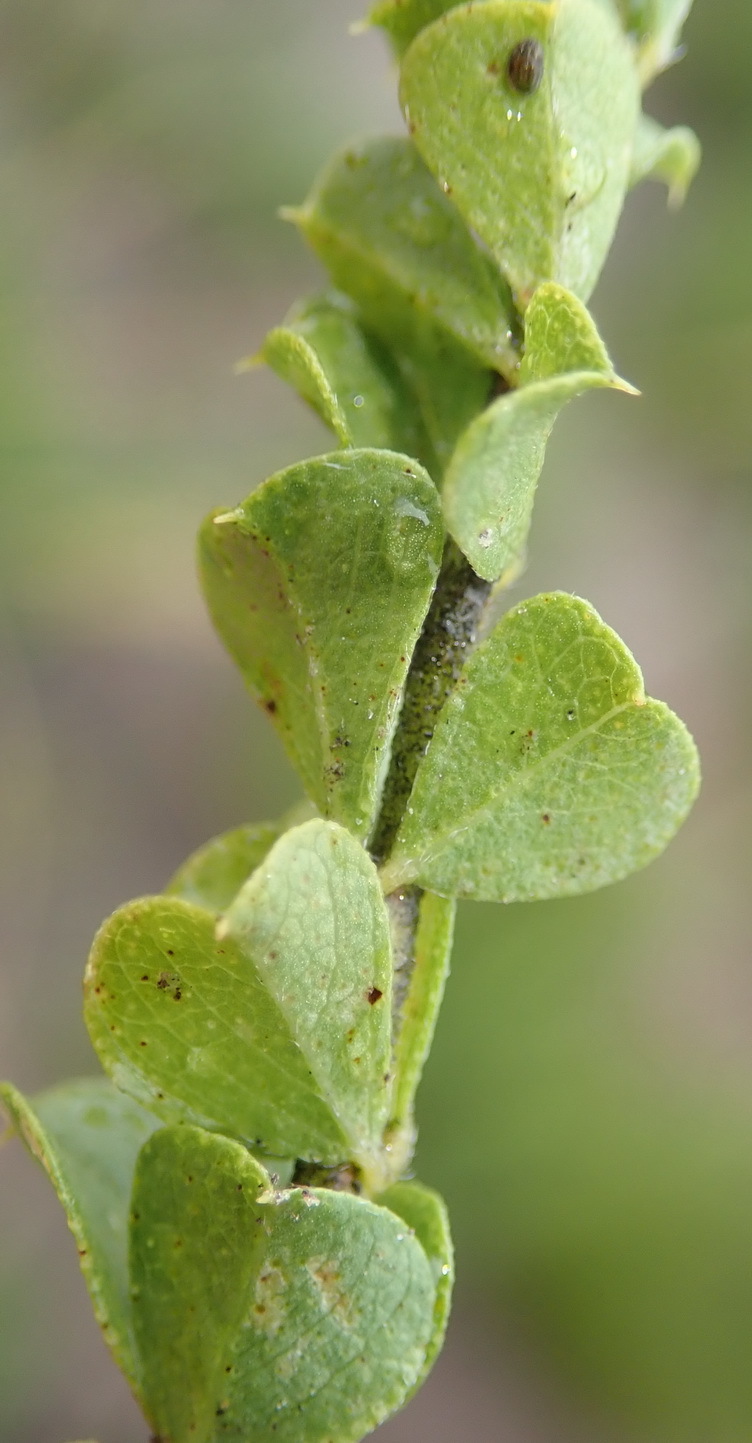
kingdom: Plantae
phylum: Tracheophyta
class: Magnoliopsida
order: Fabales
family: Fabaceae
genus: Psoralea
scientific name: Psoralea stachyera
